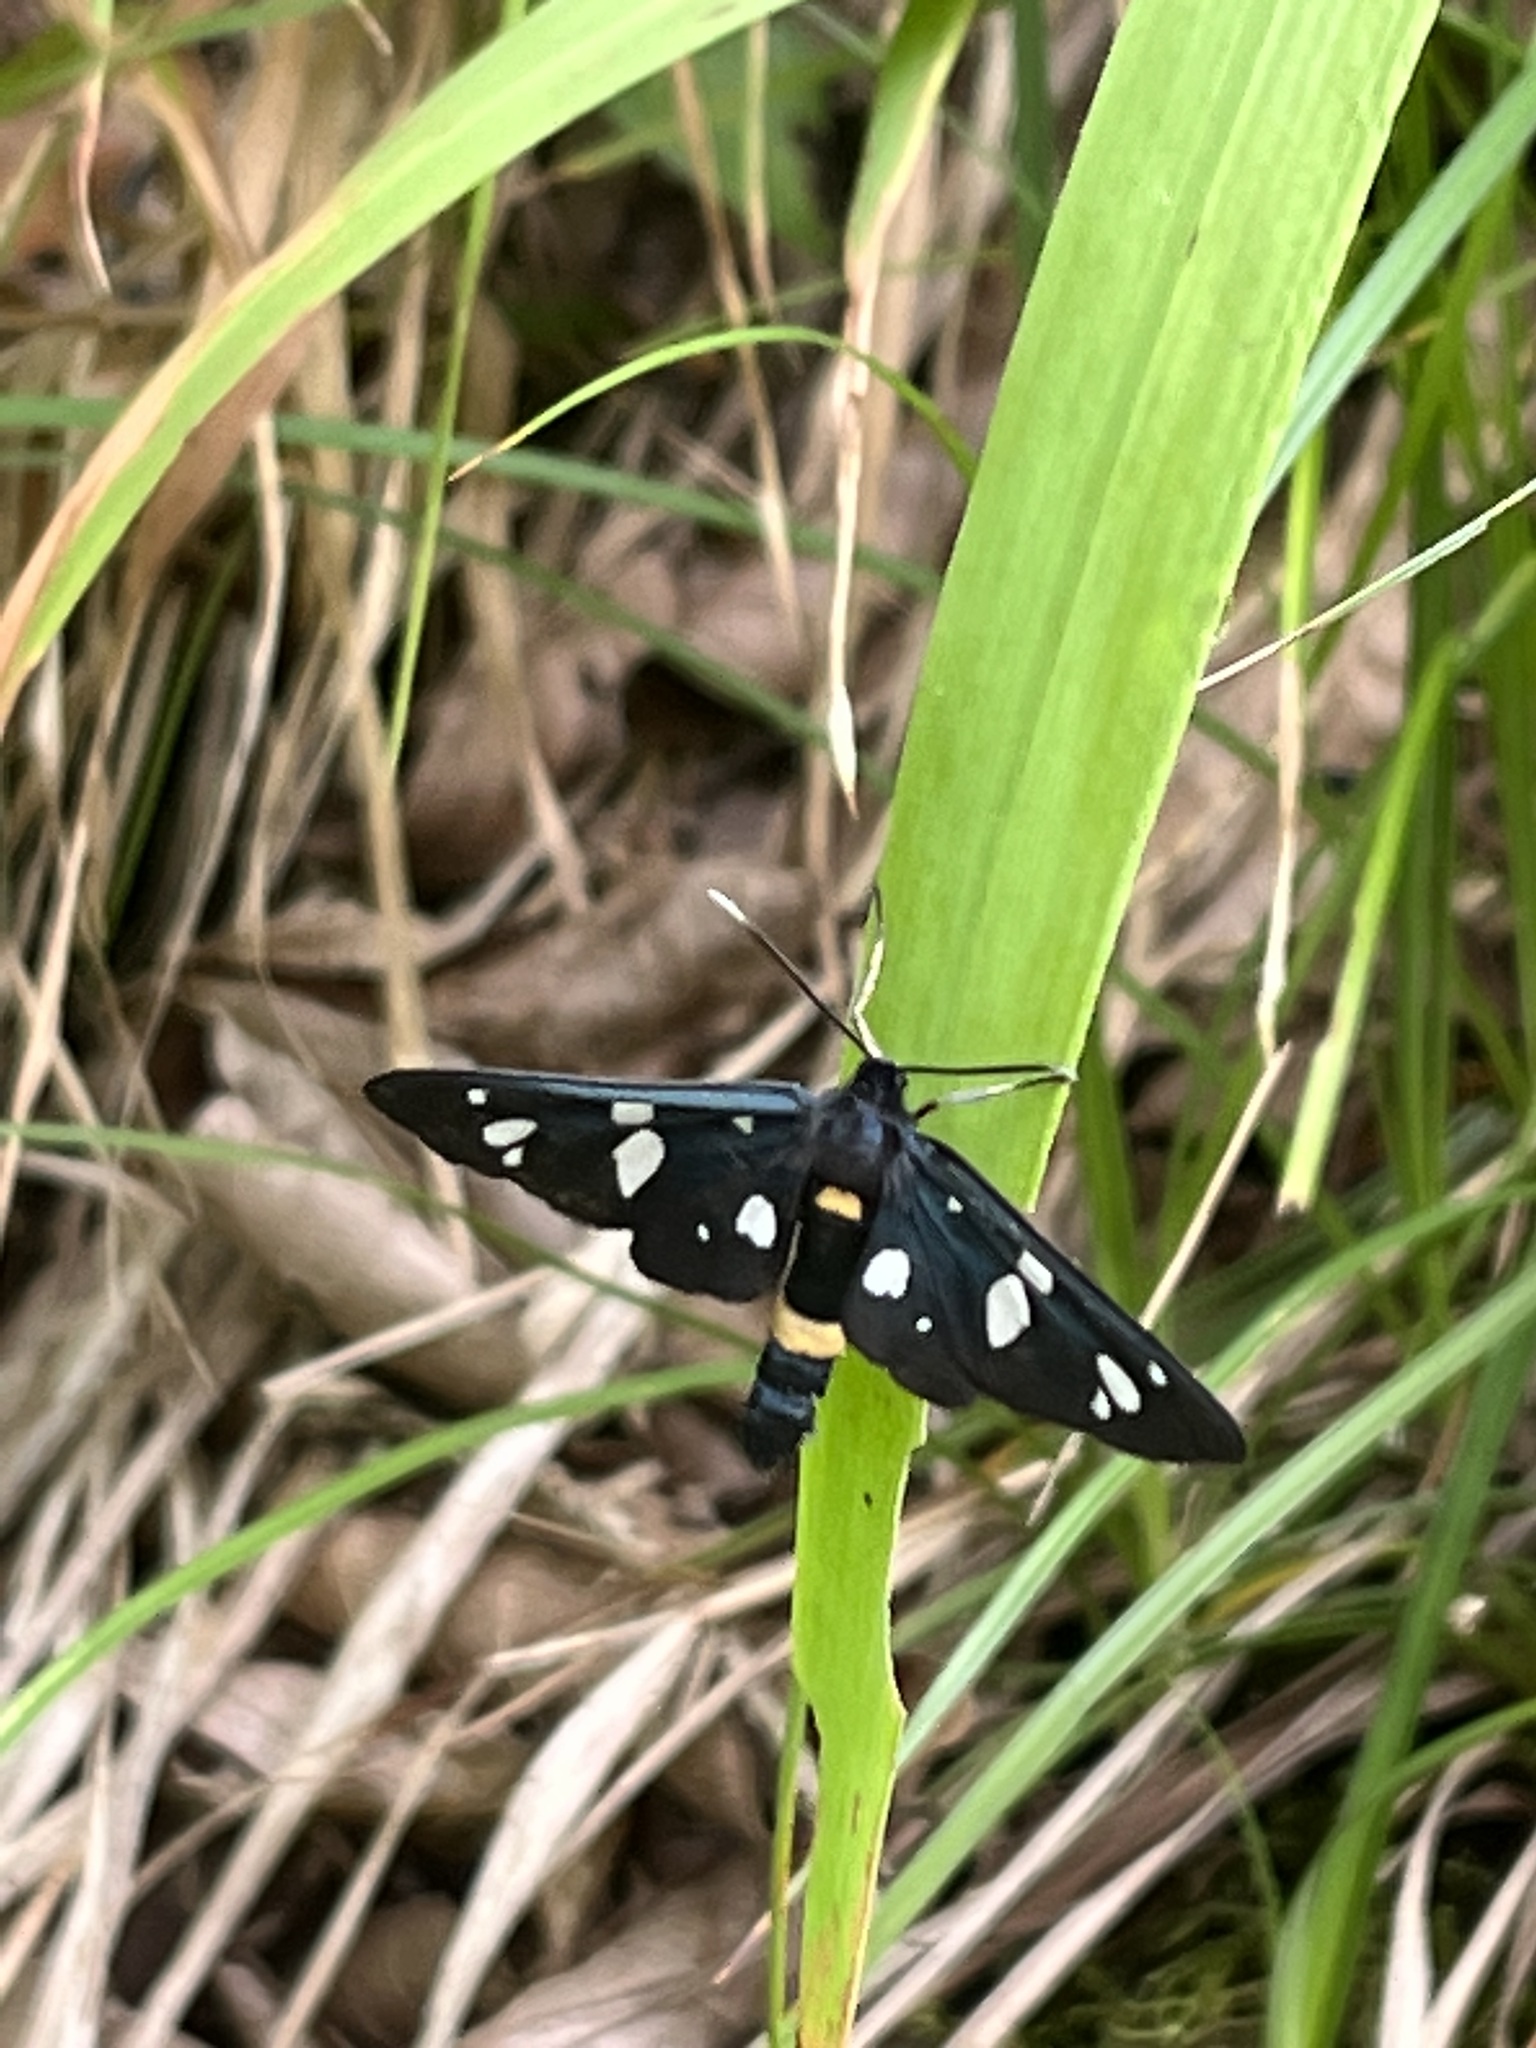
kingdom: Animalia
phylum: Arthropoda
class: Insecta
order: Lepidoptera
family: Erebidae
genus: Amata
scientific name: Amata nigricornis
